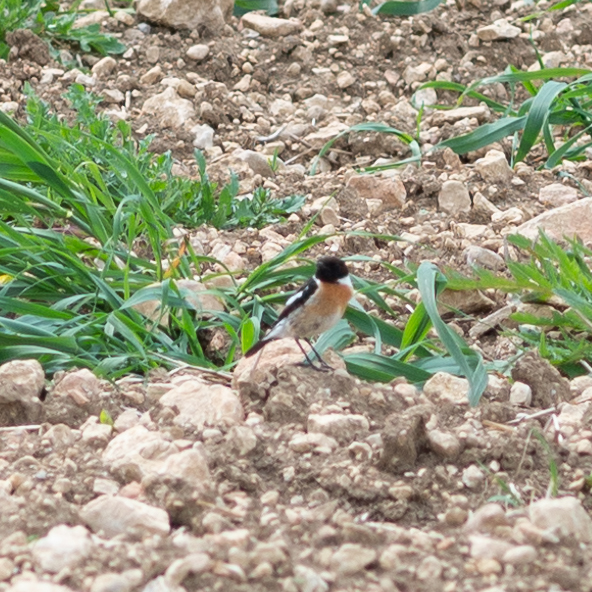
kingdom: Animalia
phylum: Chordata
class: Aves
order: Passeriformes
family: Muscicapidae
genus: Saxicola
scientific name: Saxicola rubicola
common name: European stonechat
